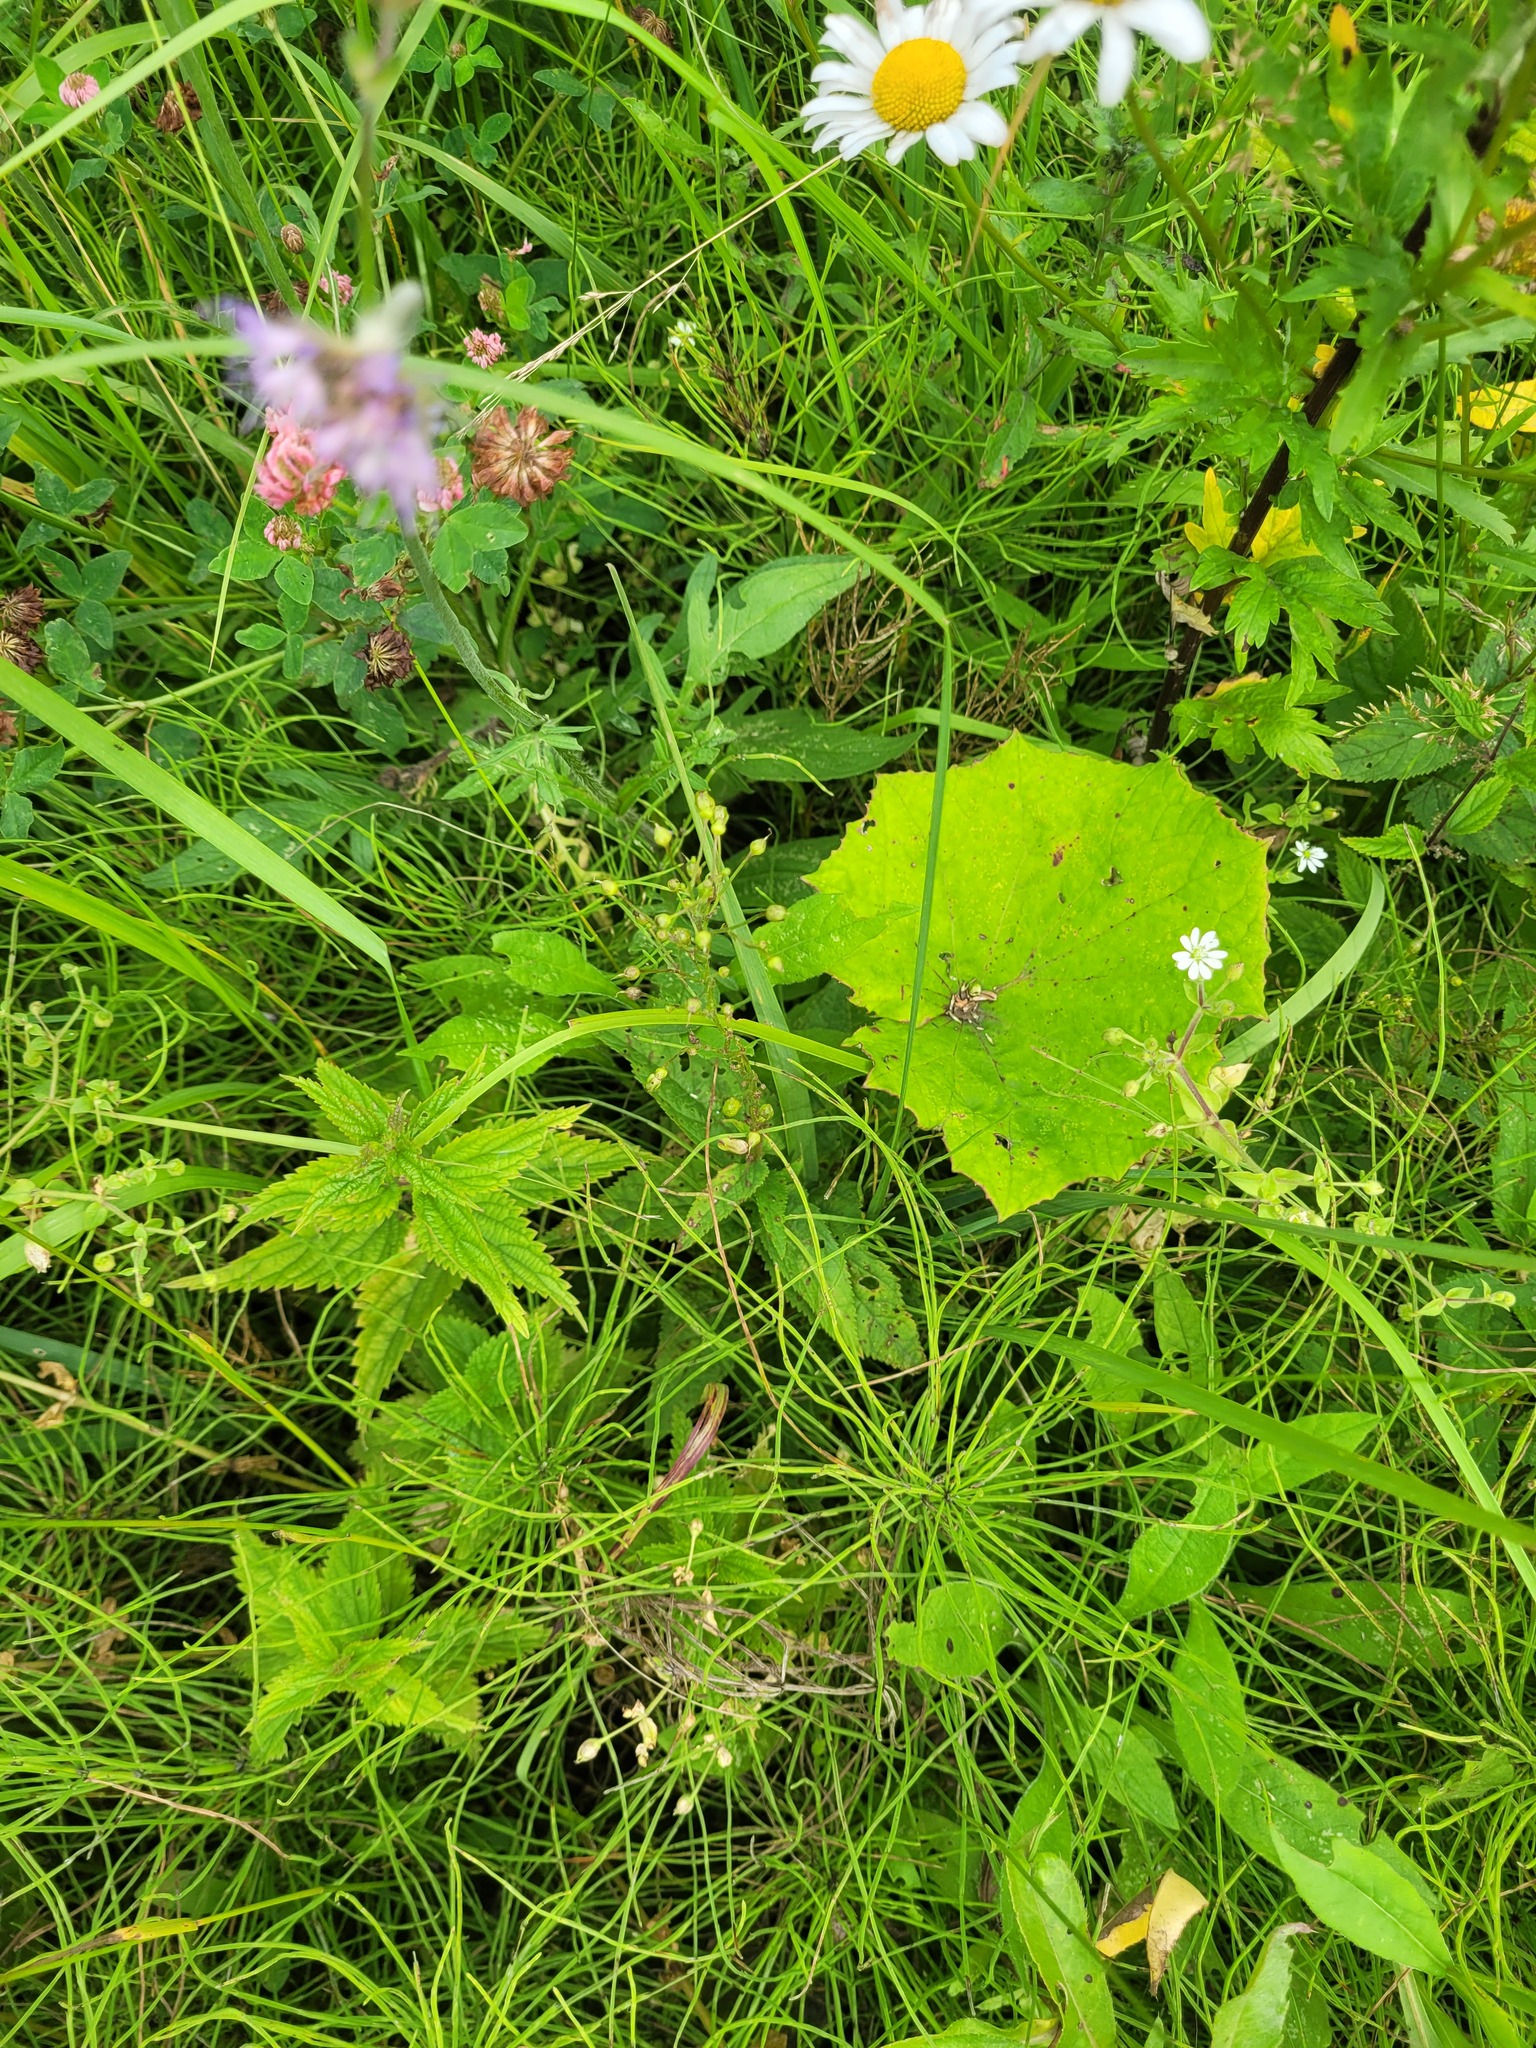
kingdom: Plantae
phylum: Tracheophyta
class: Magnoliopsida
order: Lamiales
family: Scrophulariaceae
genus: Scrophularia
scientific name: Scrophularia nodosa
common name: Common figwort
